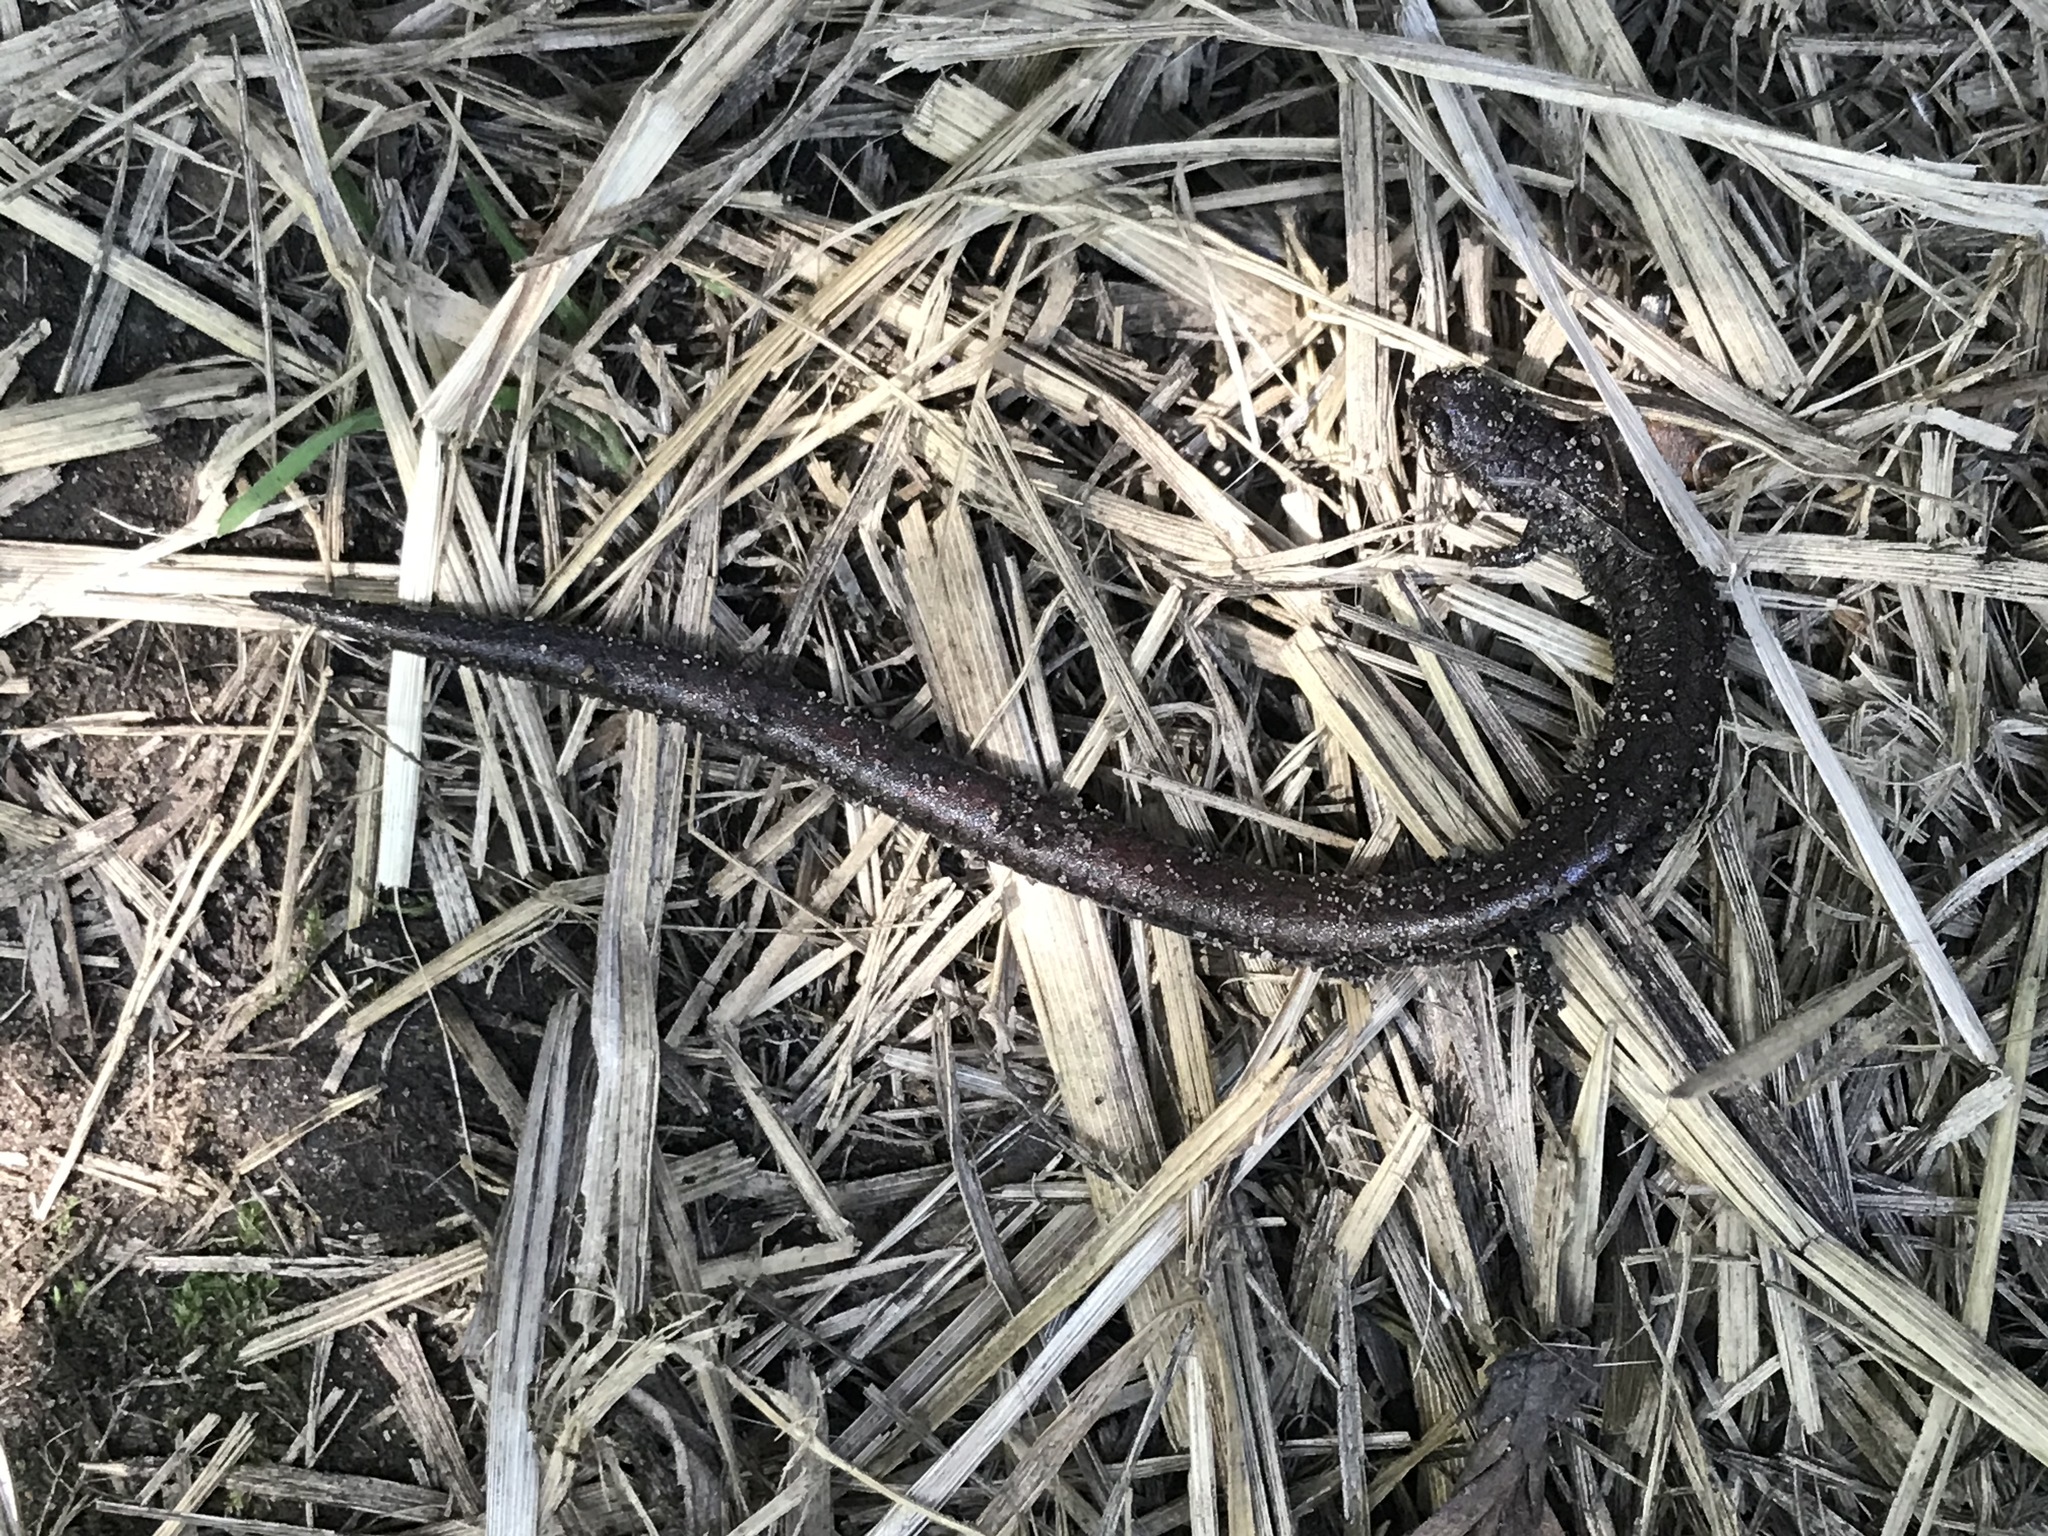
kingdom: Animalia
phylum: Chordata
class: Amphibia
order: Caudata
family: Plethodontidae
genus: Batrachoseps
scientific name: Batrachoseps attenuatus
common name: California slender salamander
